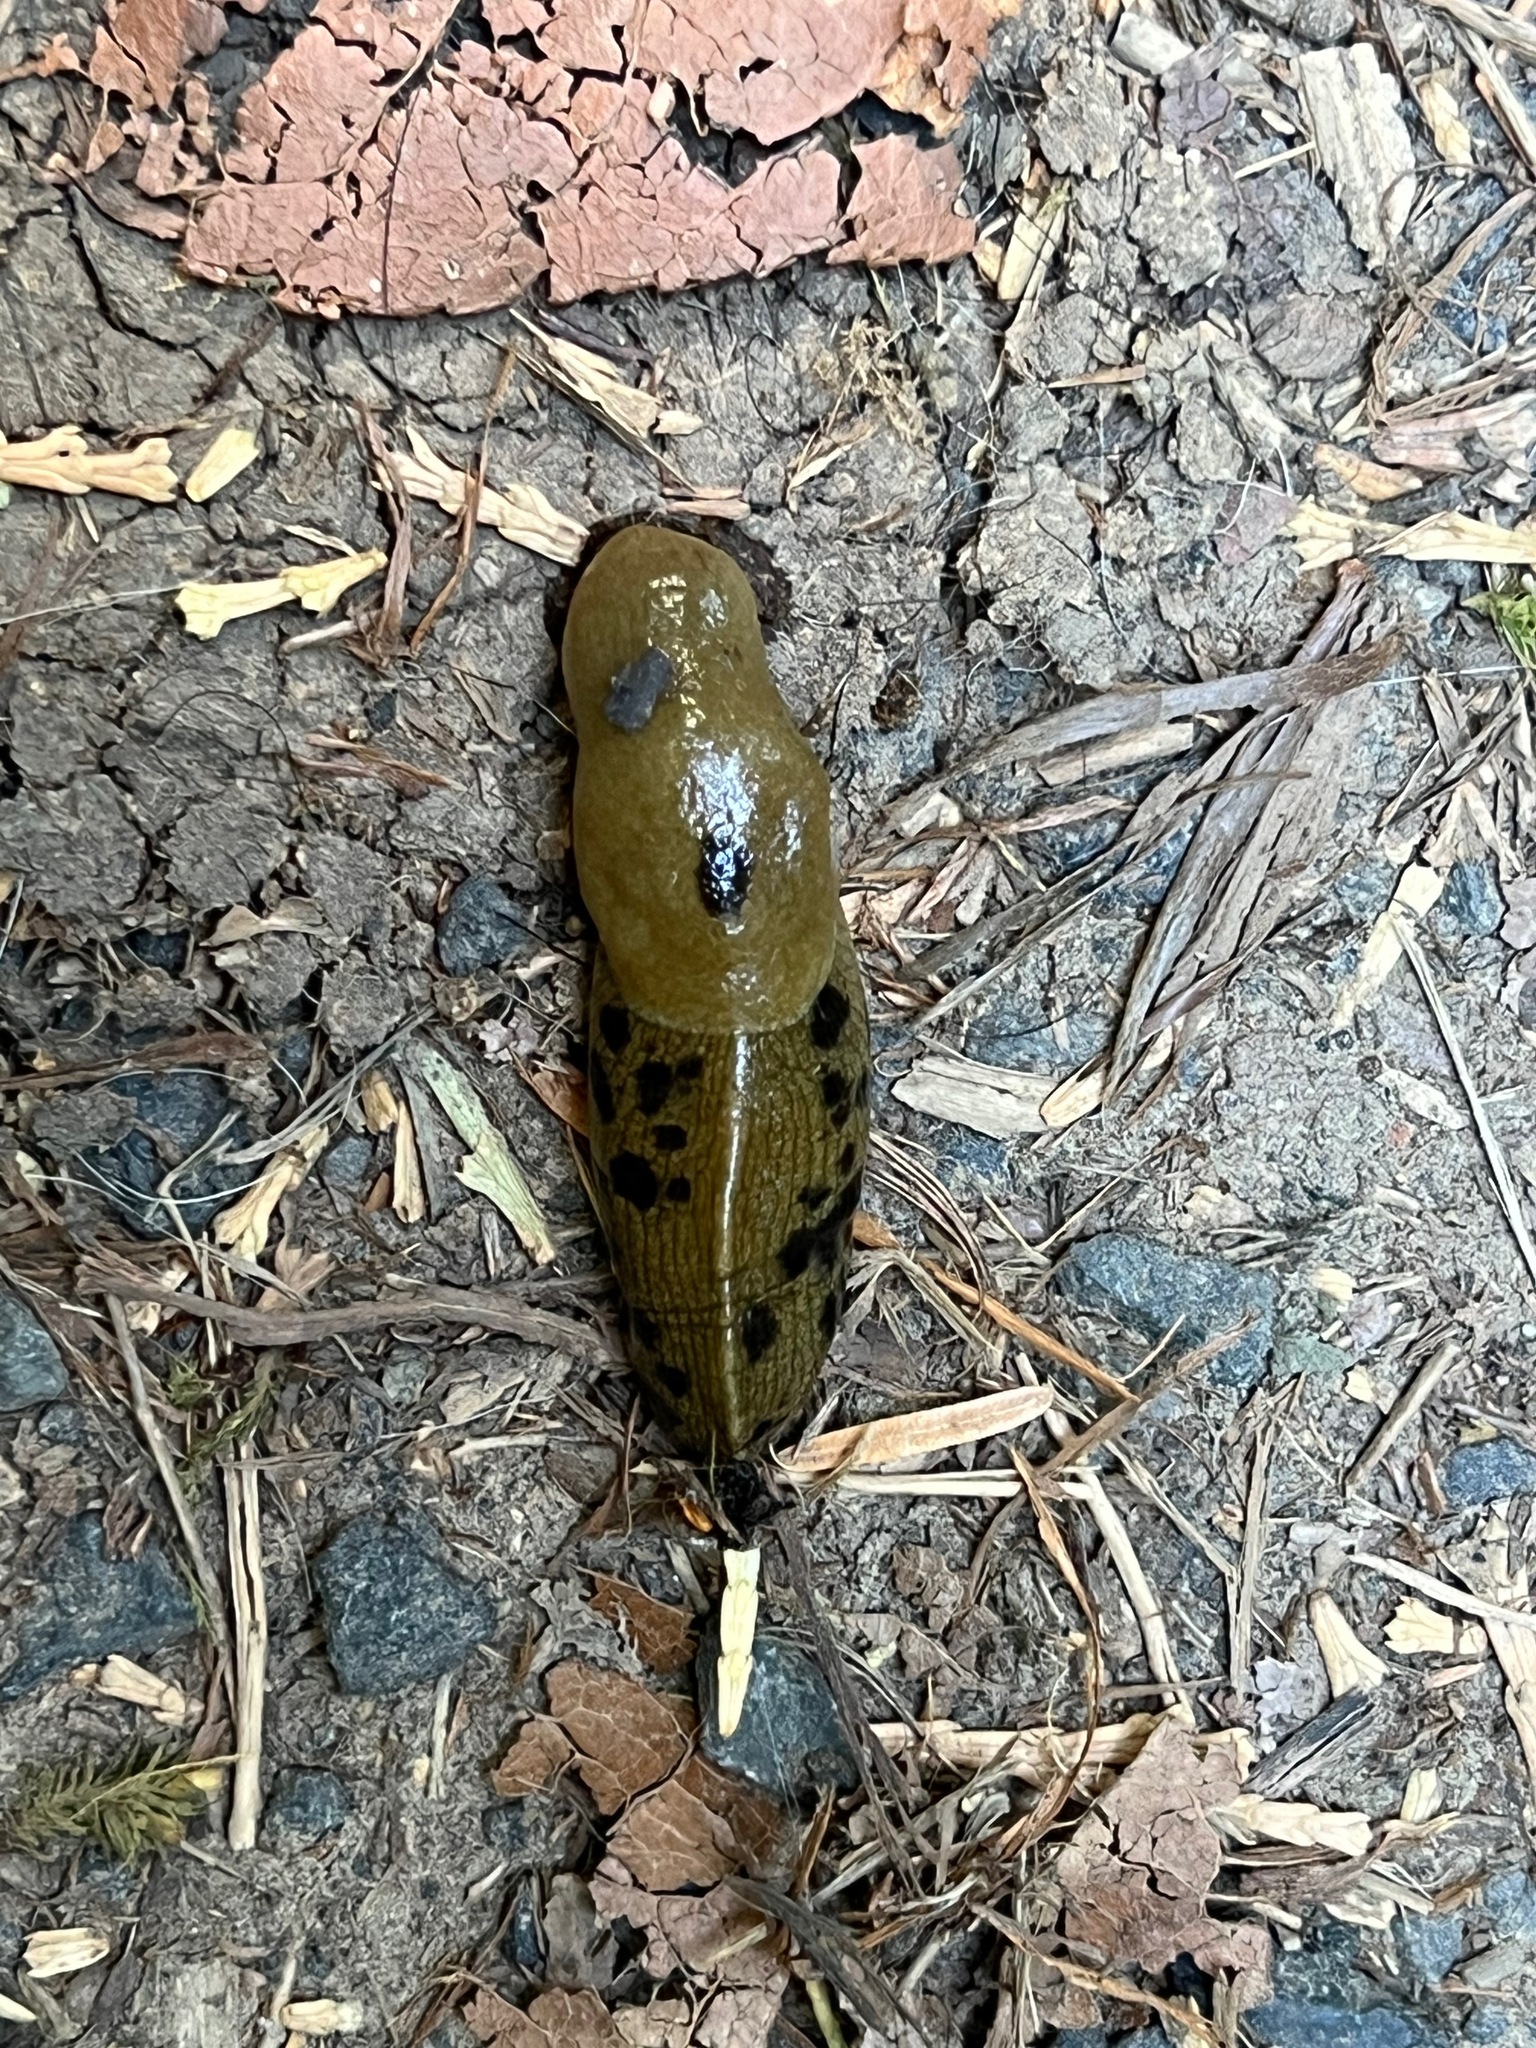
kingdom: Animalia
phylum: Mollusca
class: Gastropoda
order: Stylommatophora
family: Ariolimacidae
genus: Ariolimax
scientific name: Ariolimax columbianus
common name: Pacific banana slug
